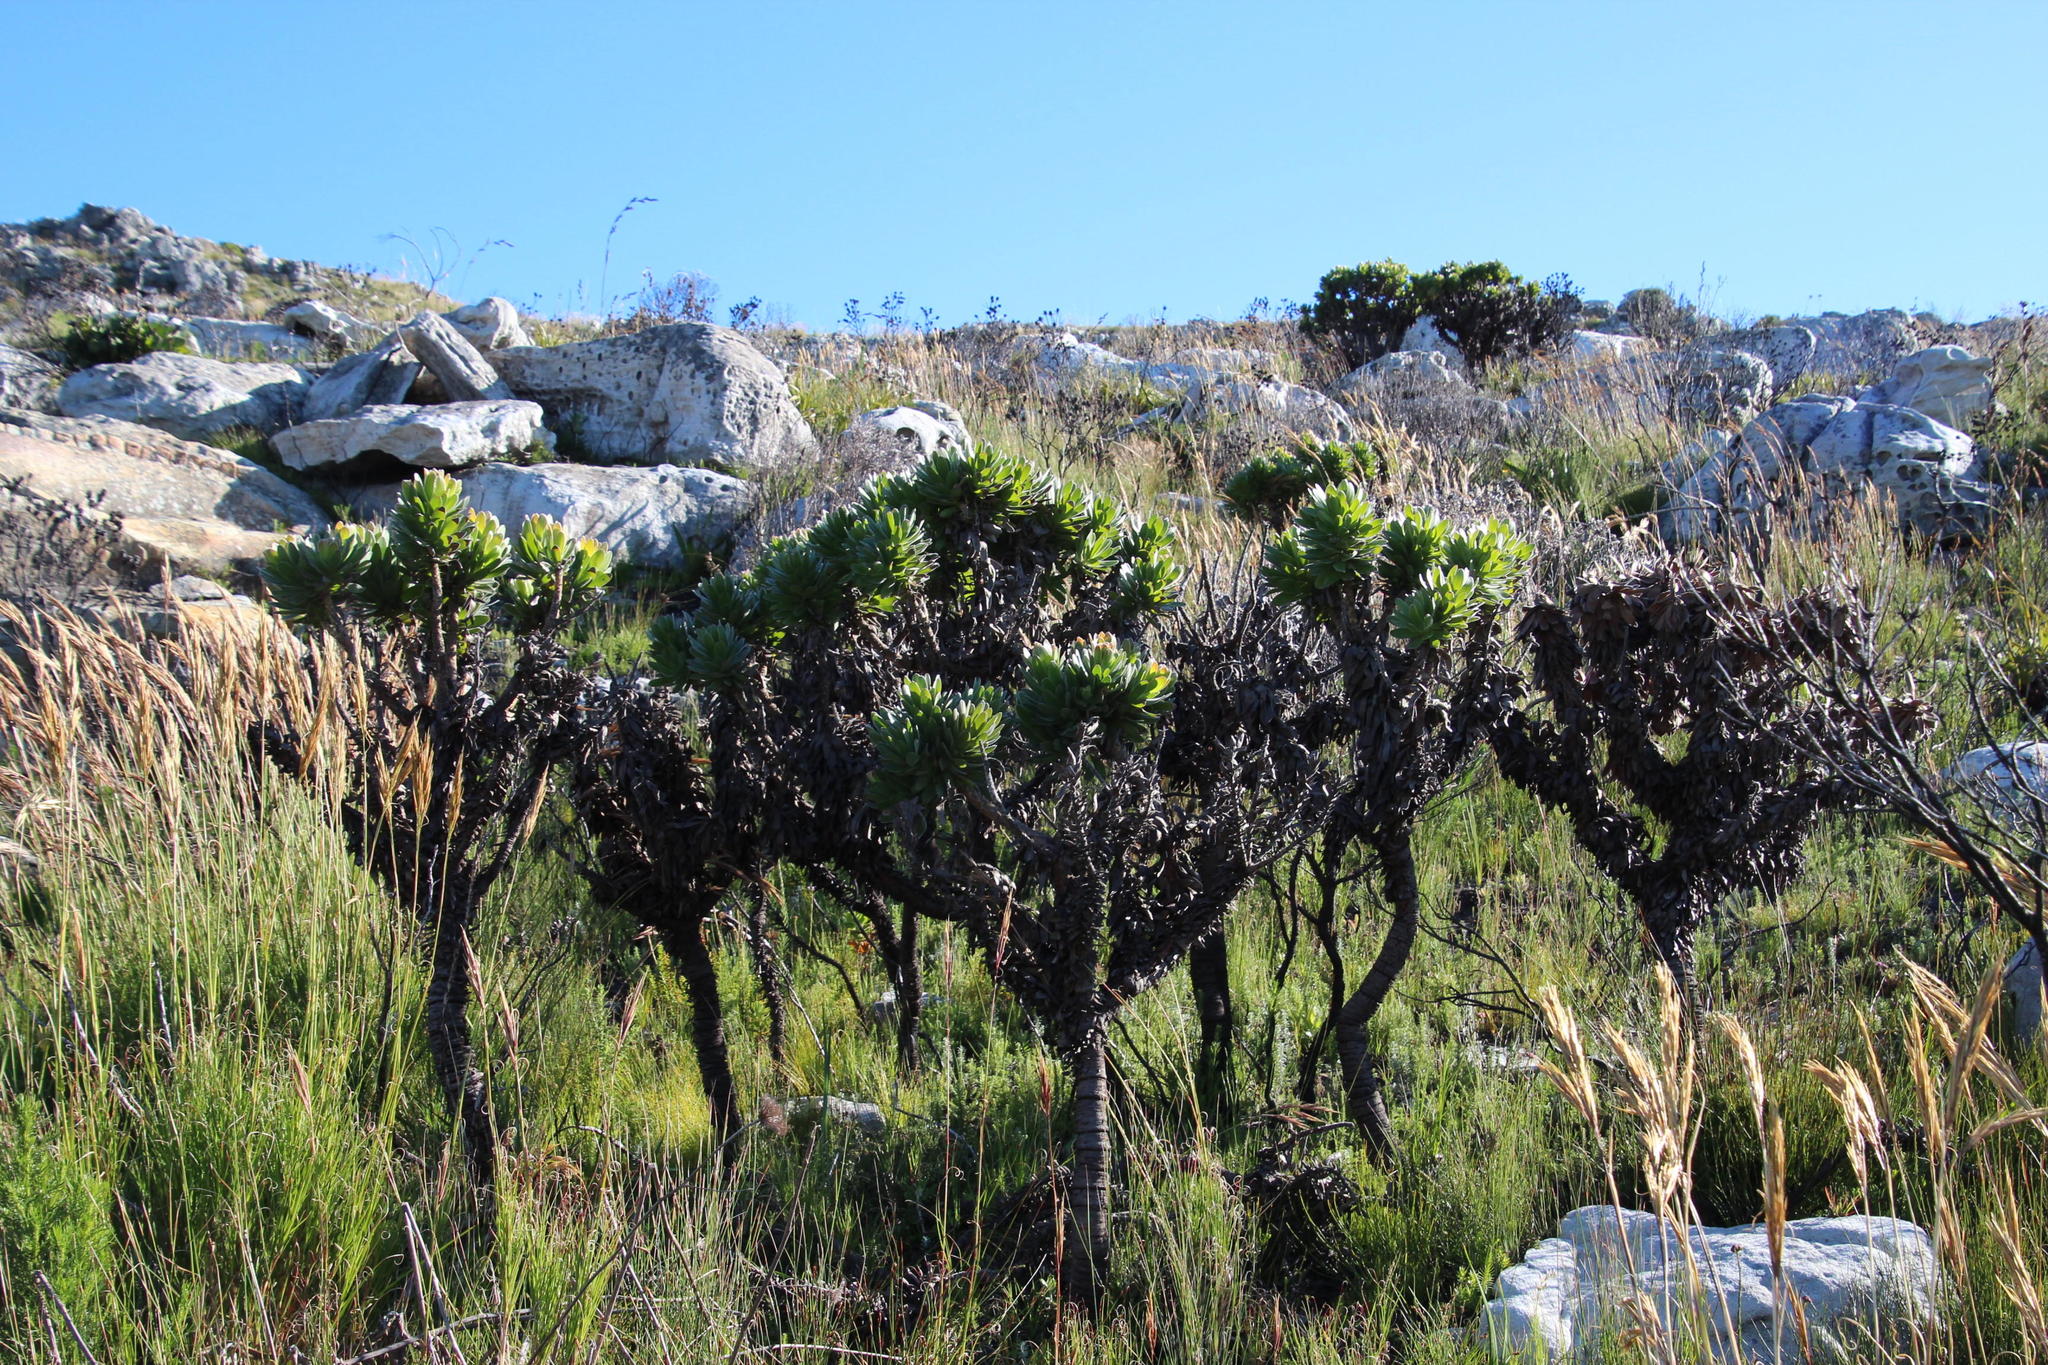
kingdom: Plantae
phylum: Tracheophyta
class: Magnoliopsida
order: Proteales
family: Proteaceae
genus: Mimetes
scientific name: Mimetes fimbriifolius
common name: Fringed bottlebrush
